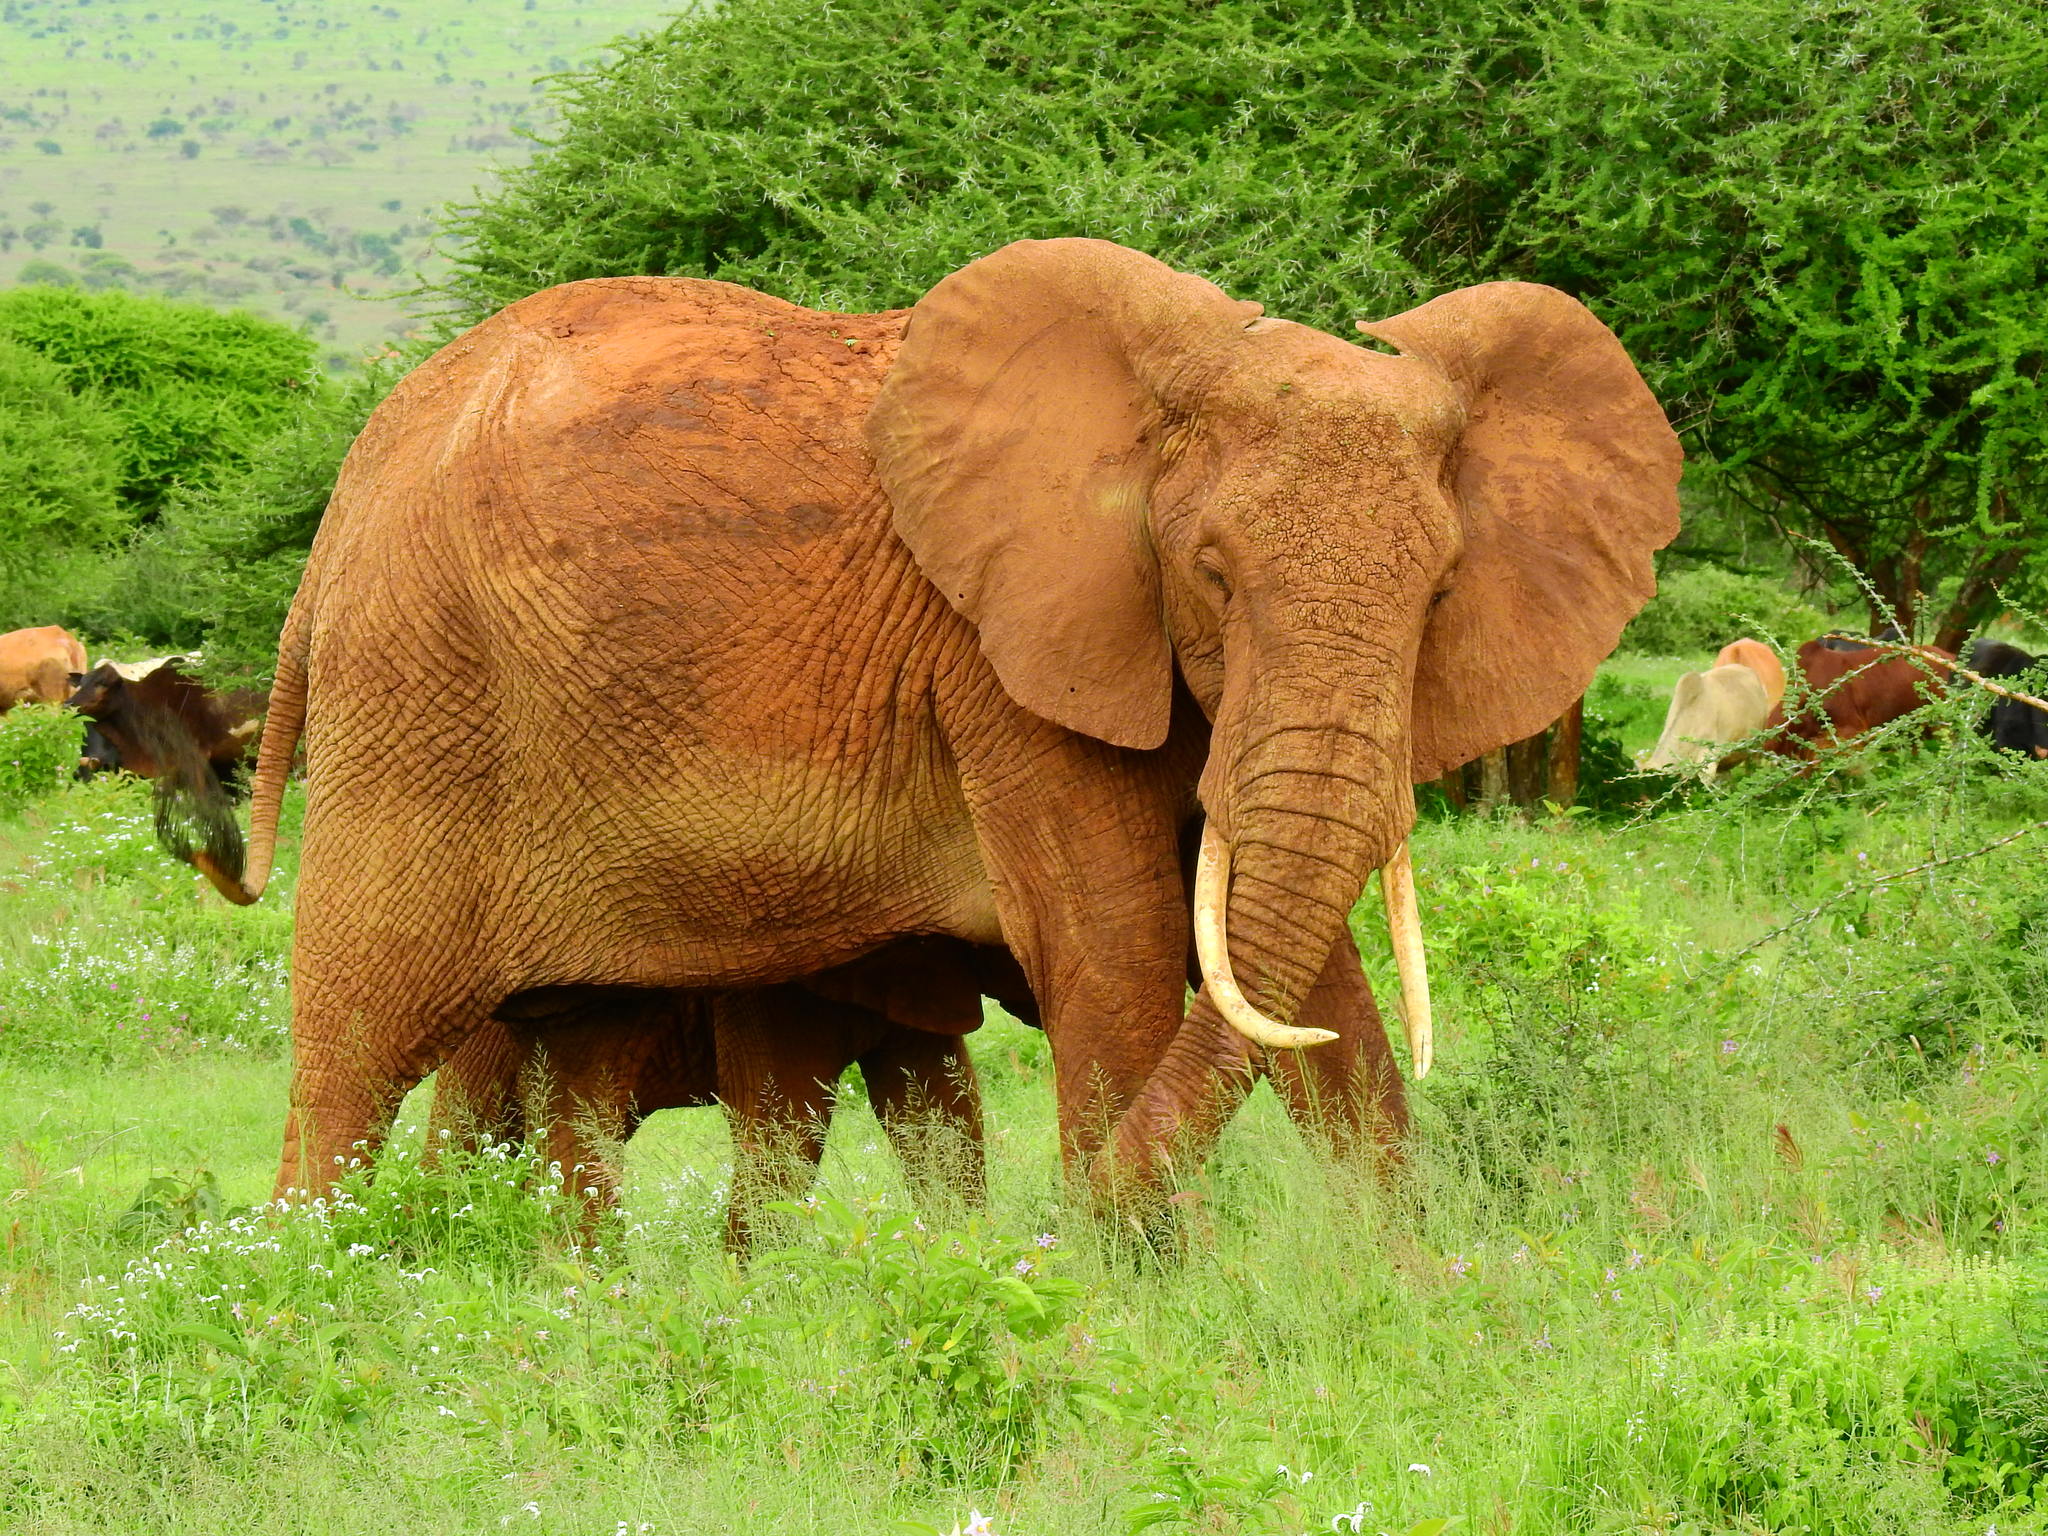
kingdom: Animalia
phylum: Chordata
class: Mammalia
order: Proboscidea
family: Elephantidae
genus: Loxodonta
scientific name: Loxodonta africana
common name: African elephant
